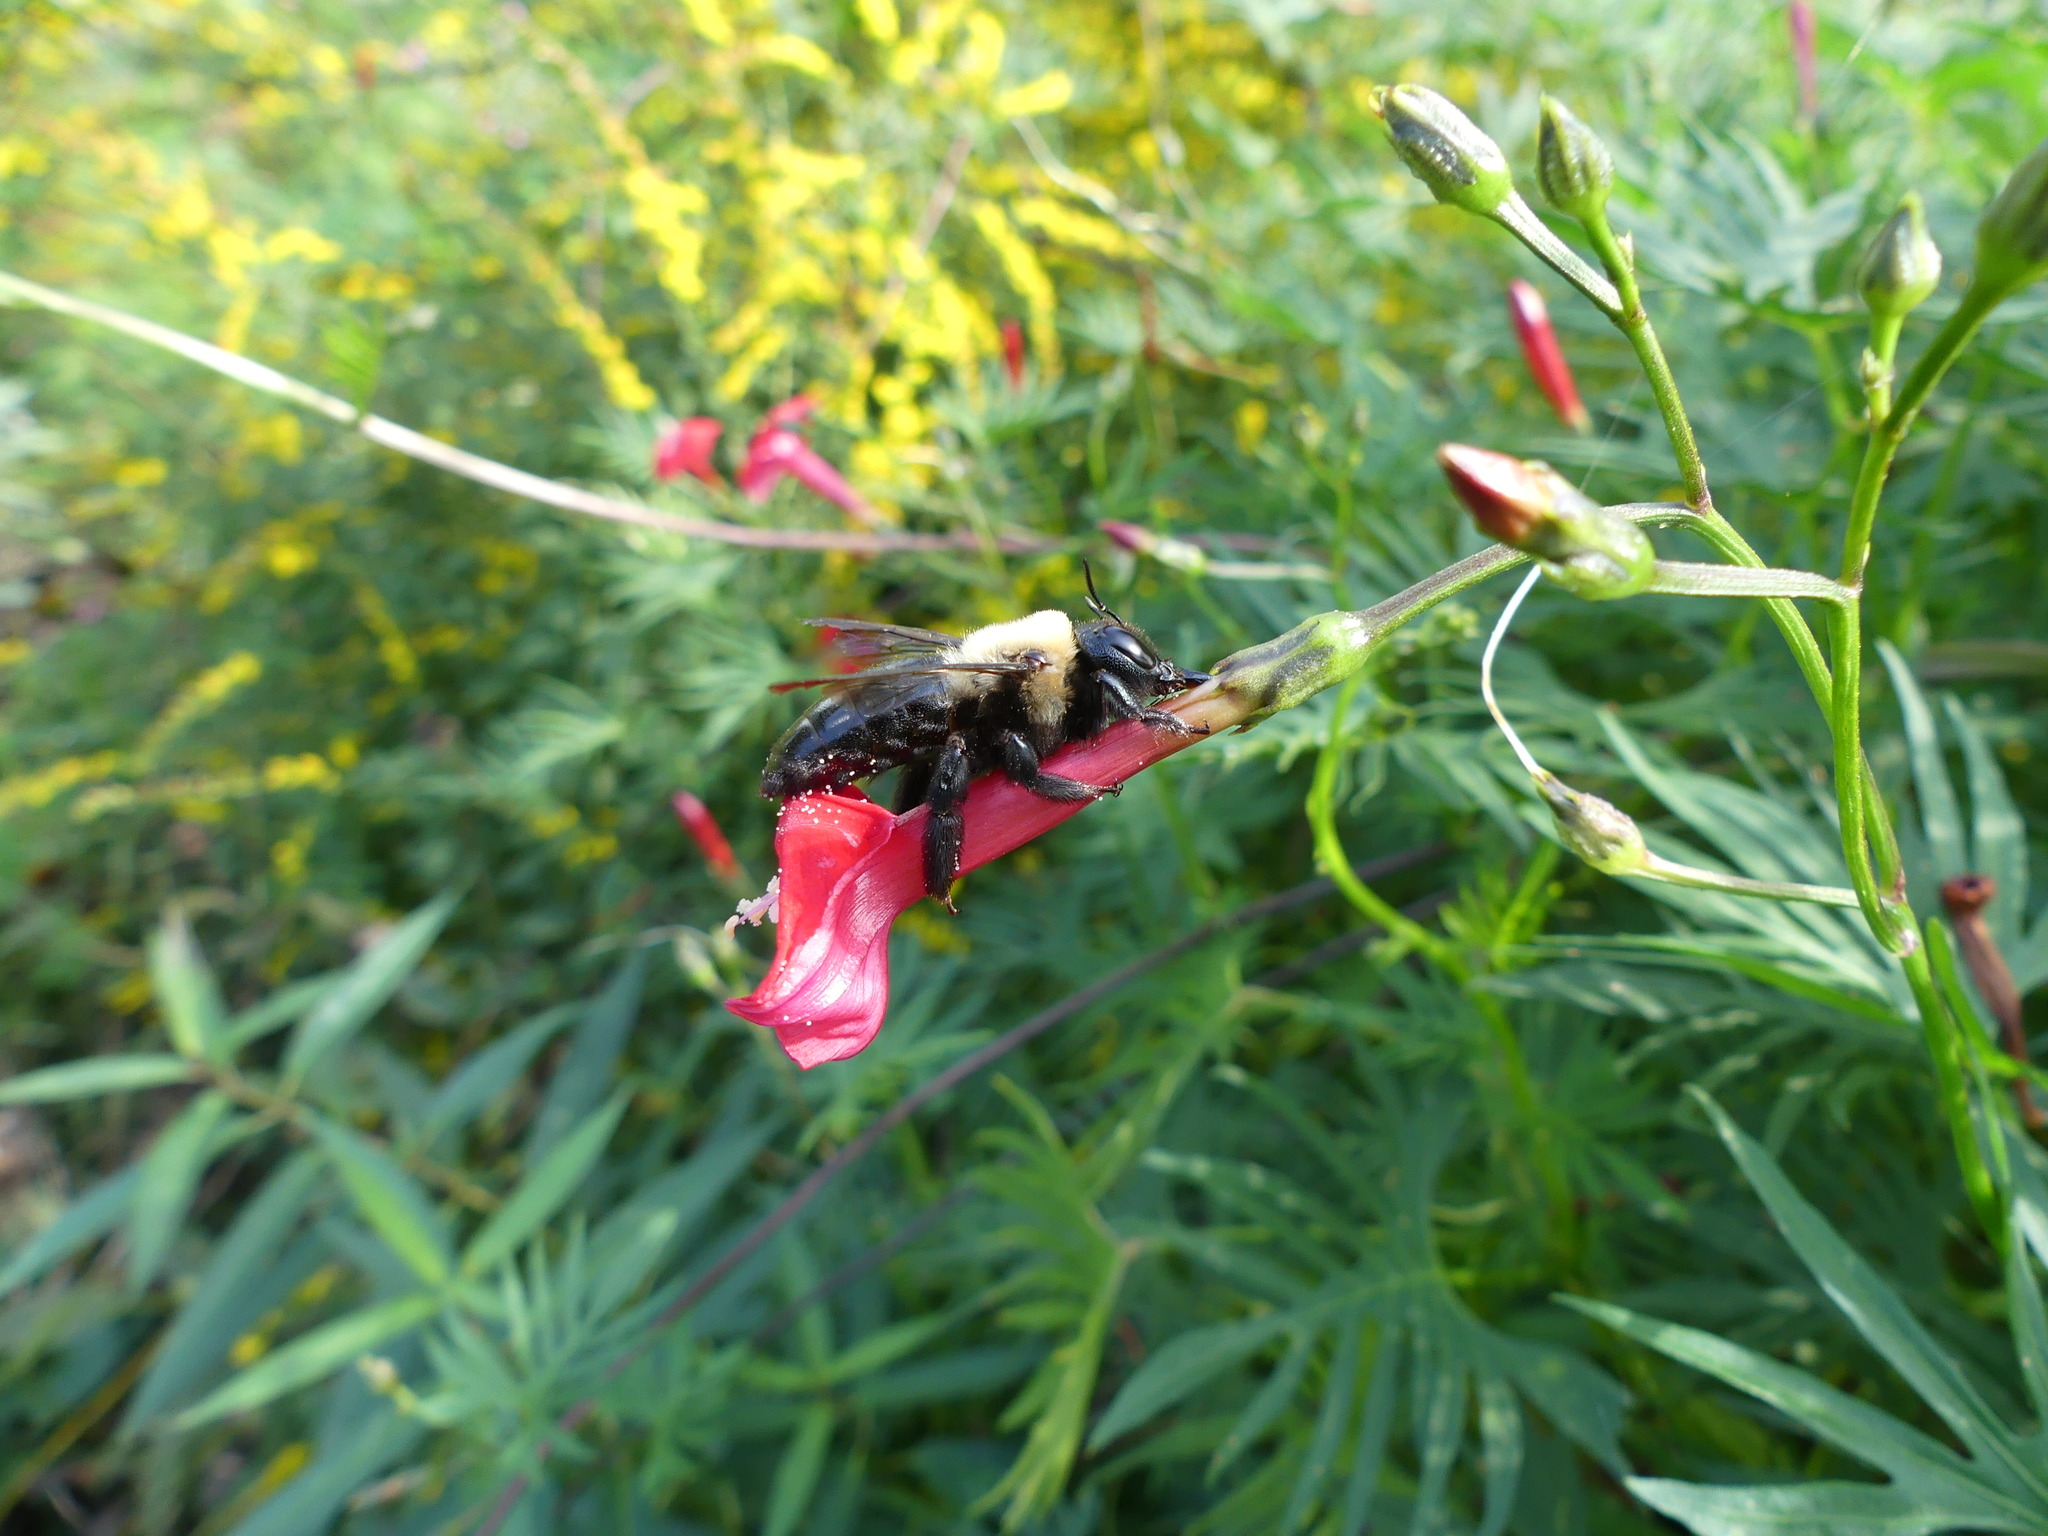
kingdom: Animalia
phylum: Arthropoda
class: Insecta
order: Hymenoptera
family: Apidae
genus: Xylocopa
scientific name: Xylocopa virginica
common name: Carpenter bee
